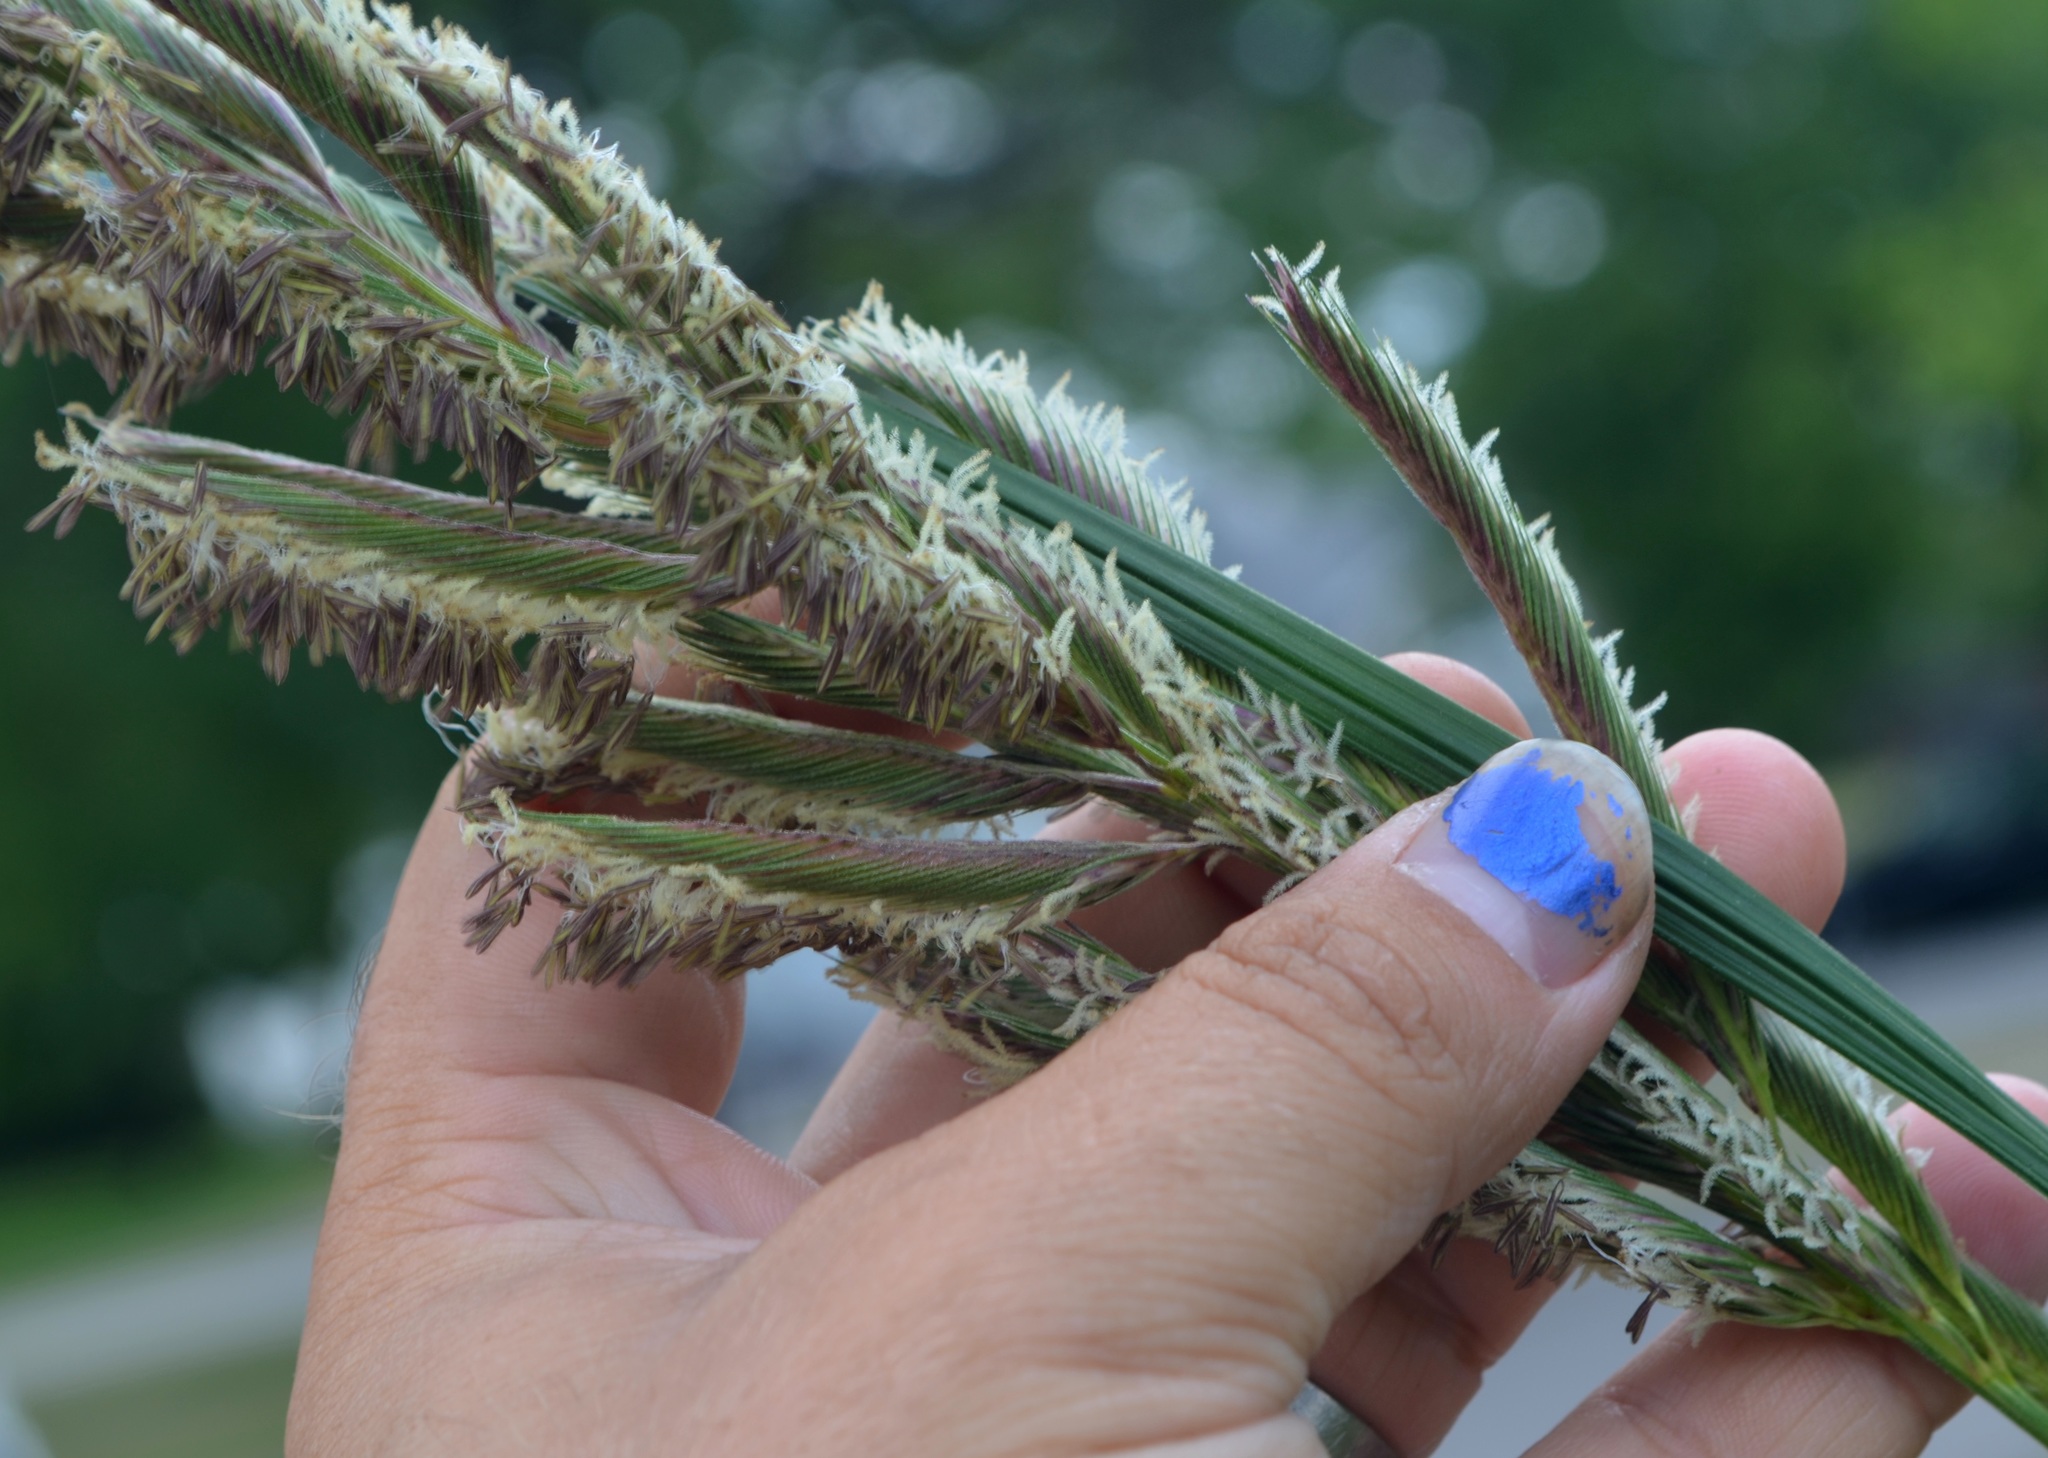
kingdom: Plantae
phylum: Tracheophyta
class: Liliopsida
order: Poales
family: Poaceae
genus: Sporobolus
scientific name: Sporobolus michauxianus
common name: Freshwater cordgrass
